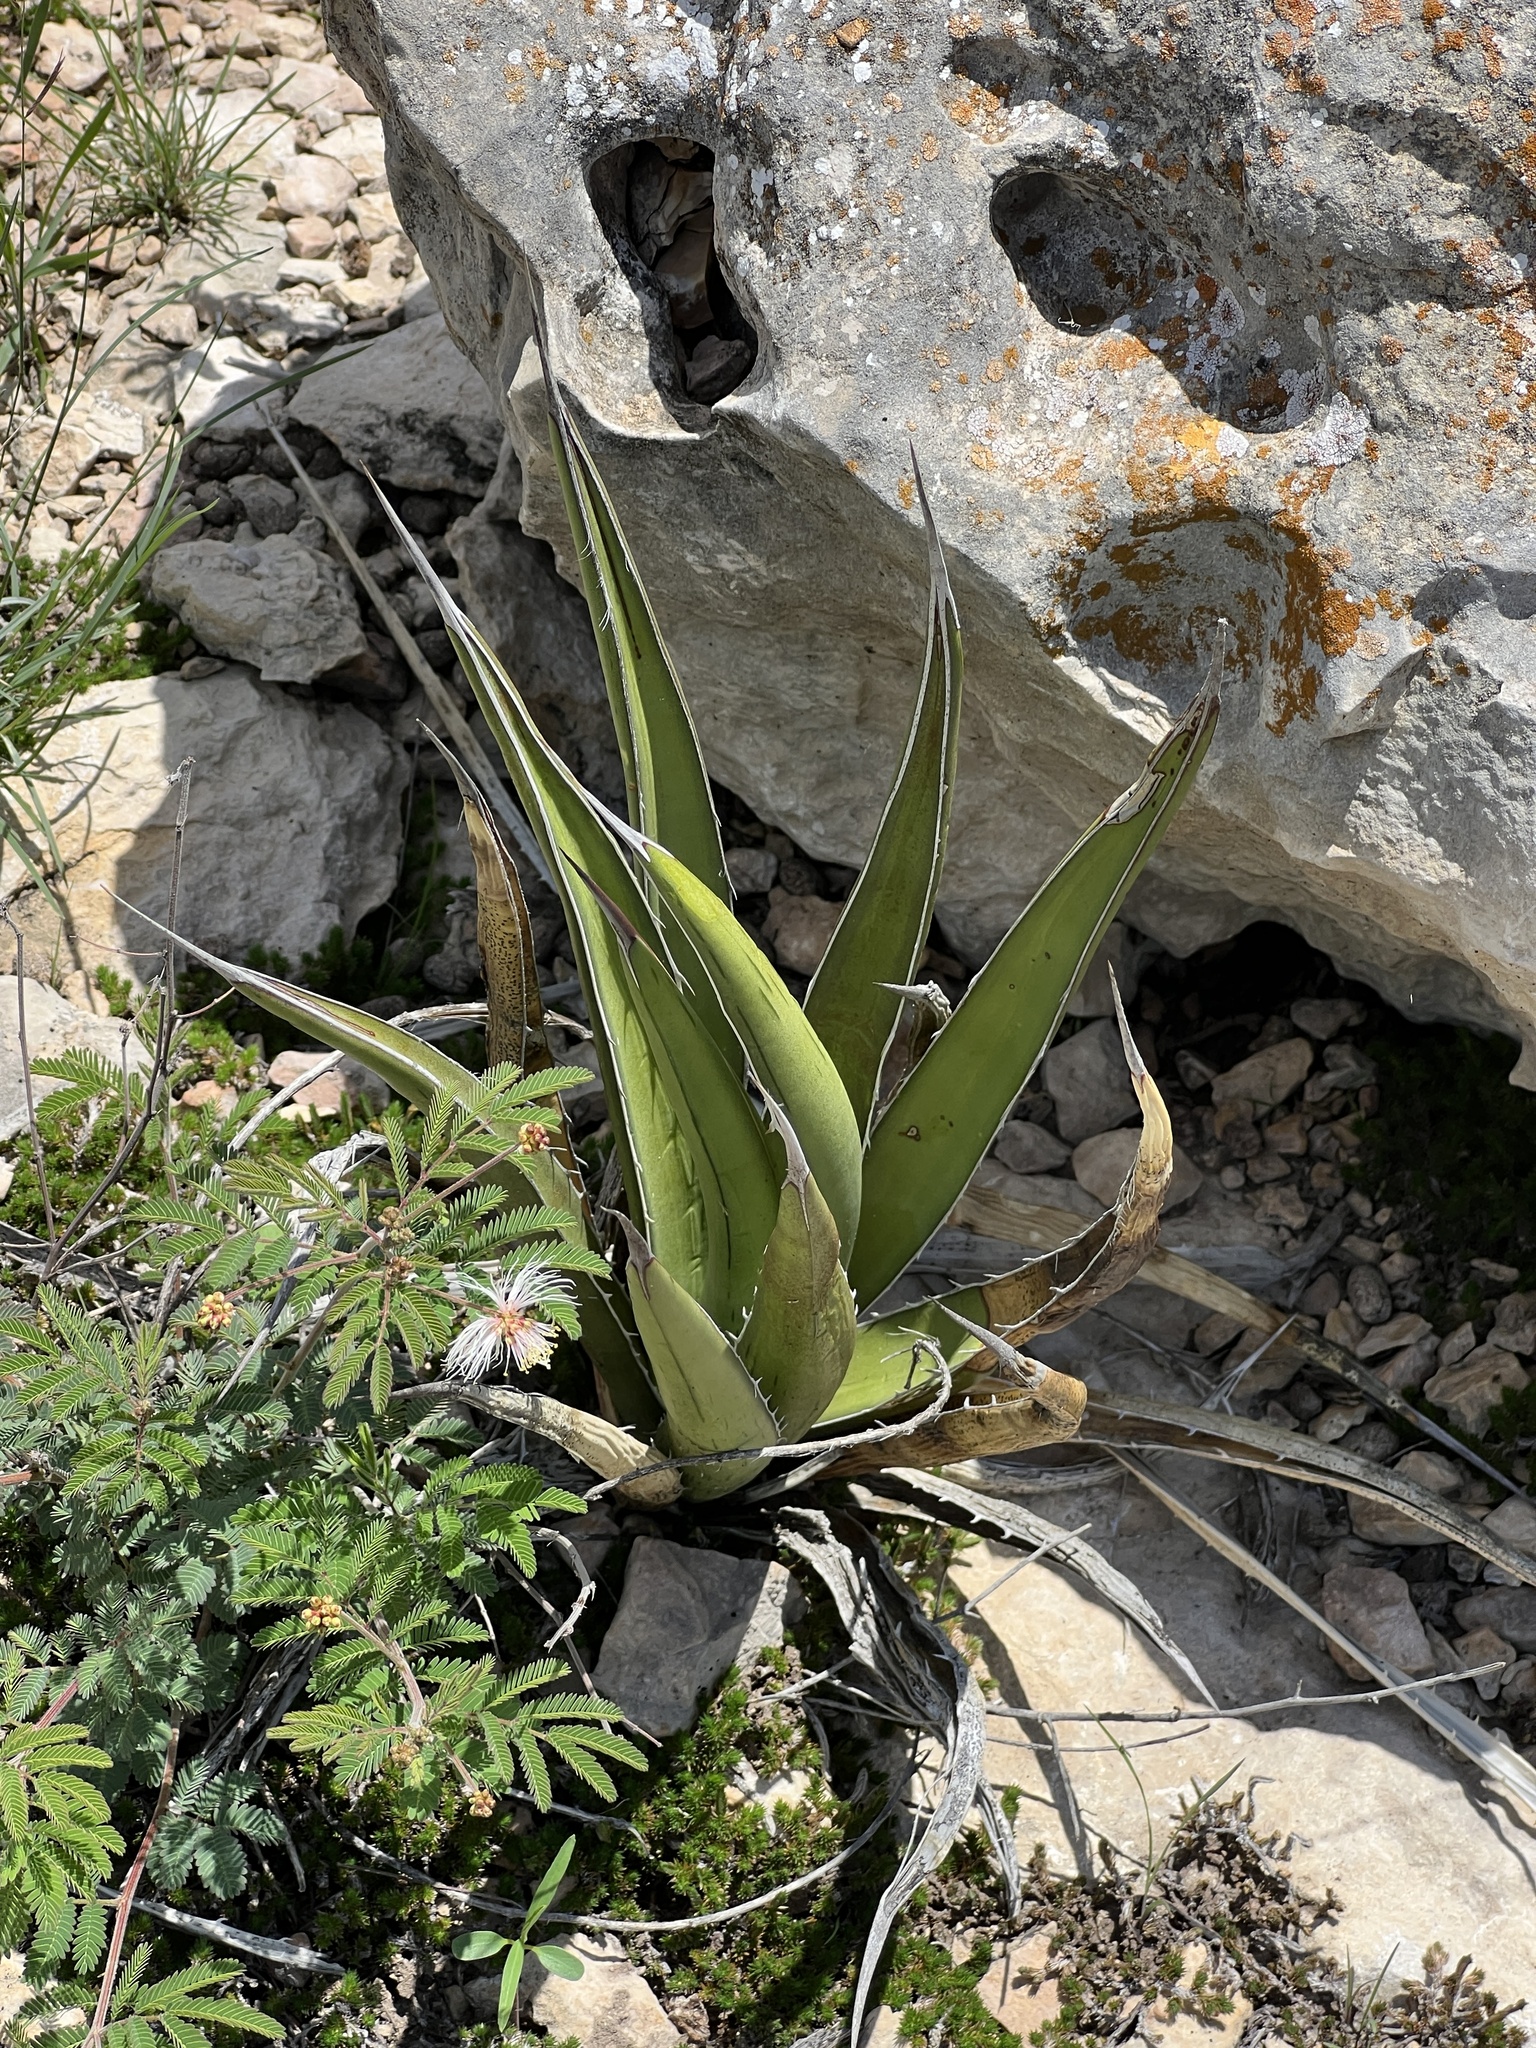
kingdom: Plantae
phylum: Tracheophyta
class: Liliopsida
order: Asparagales
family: Asparagaceae
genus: Agave
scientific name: Agave lechuguilla
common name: Lecheguilla agave
